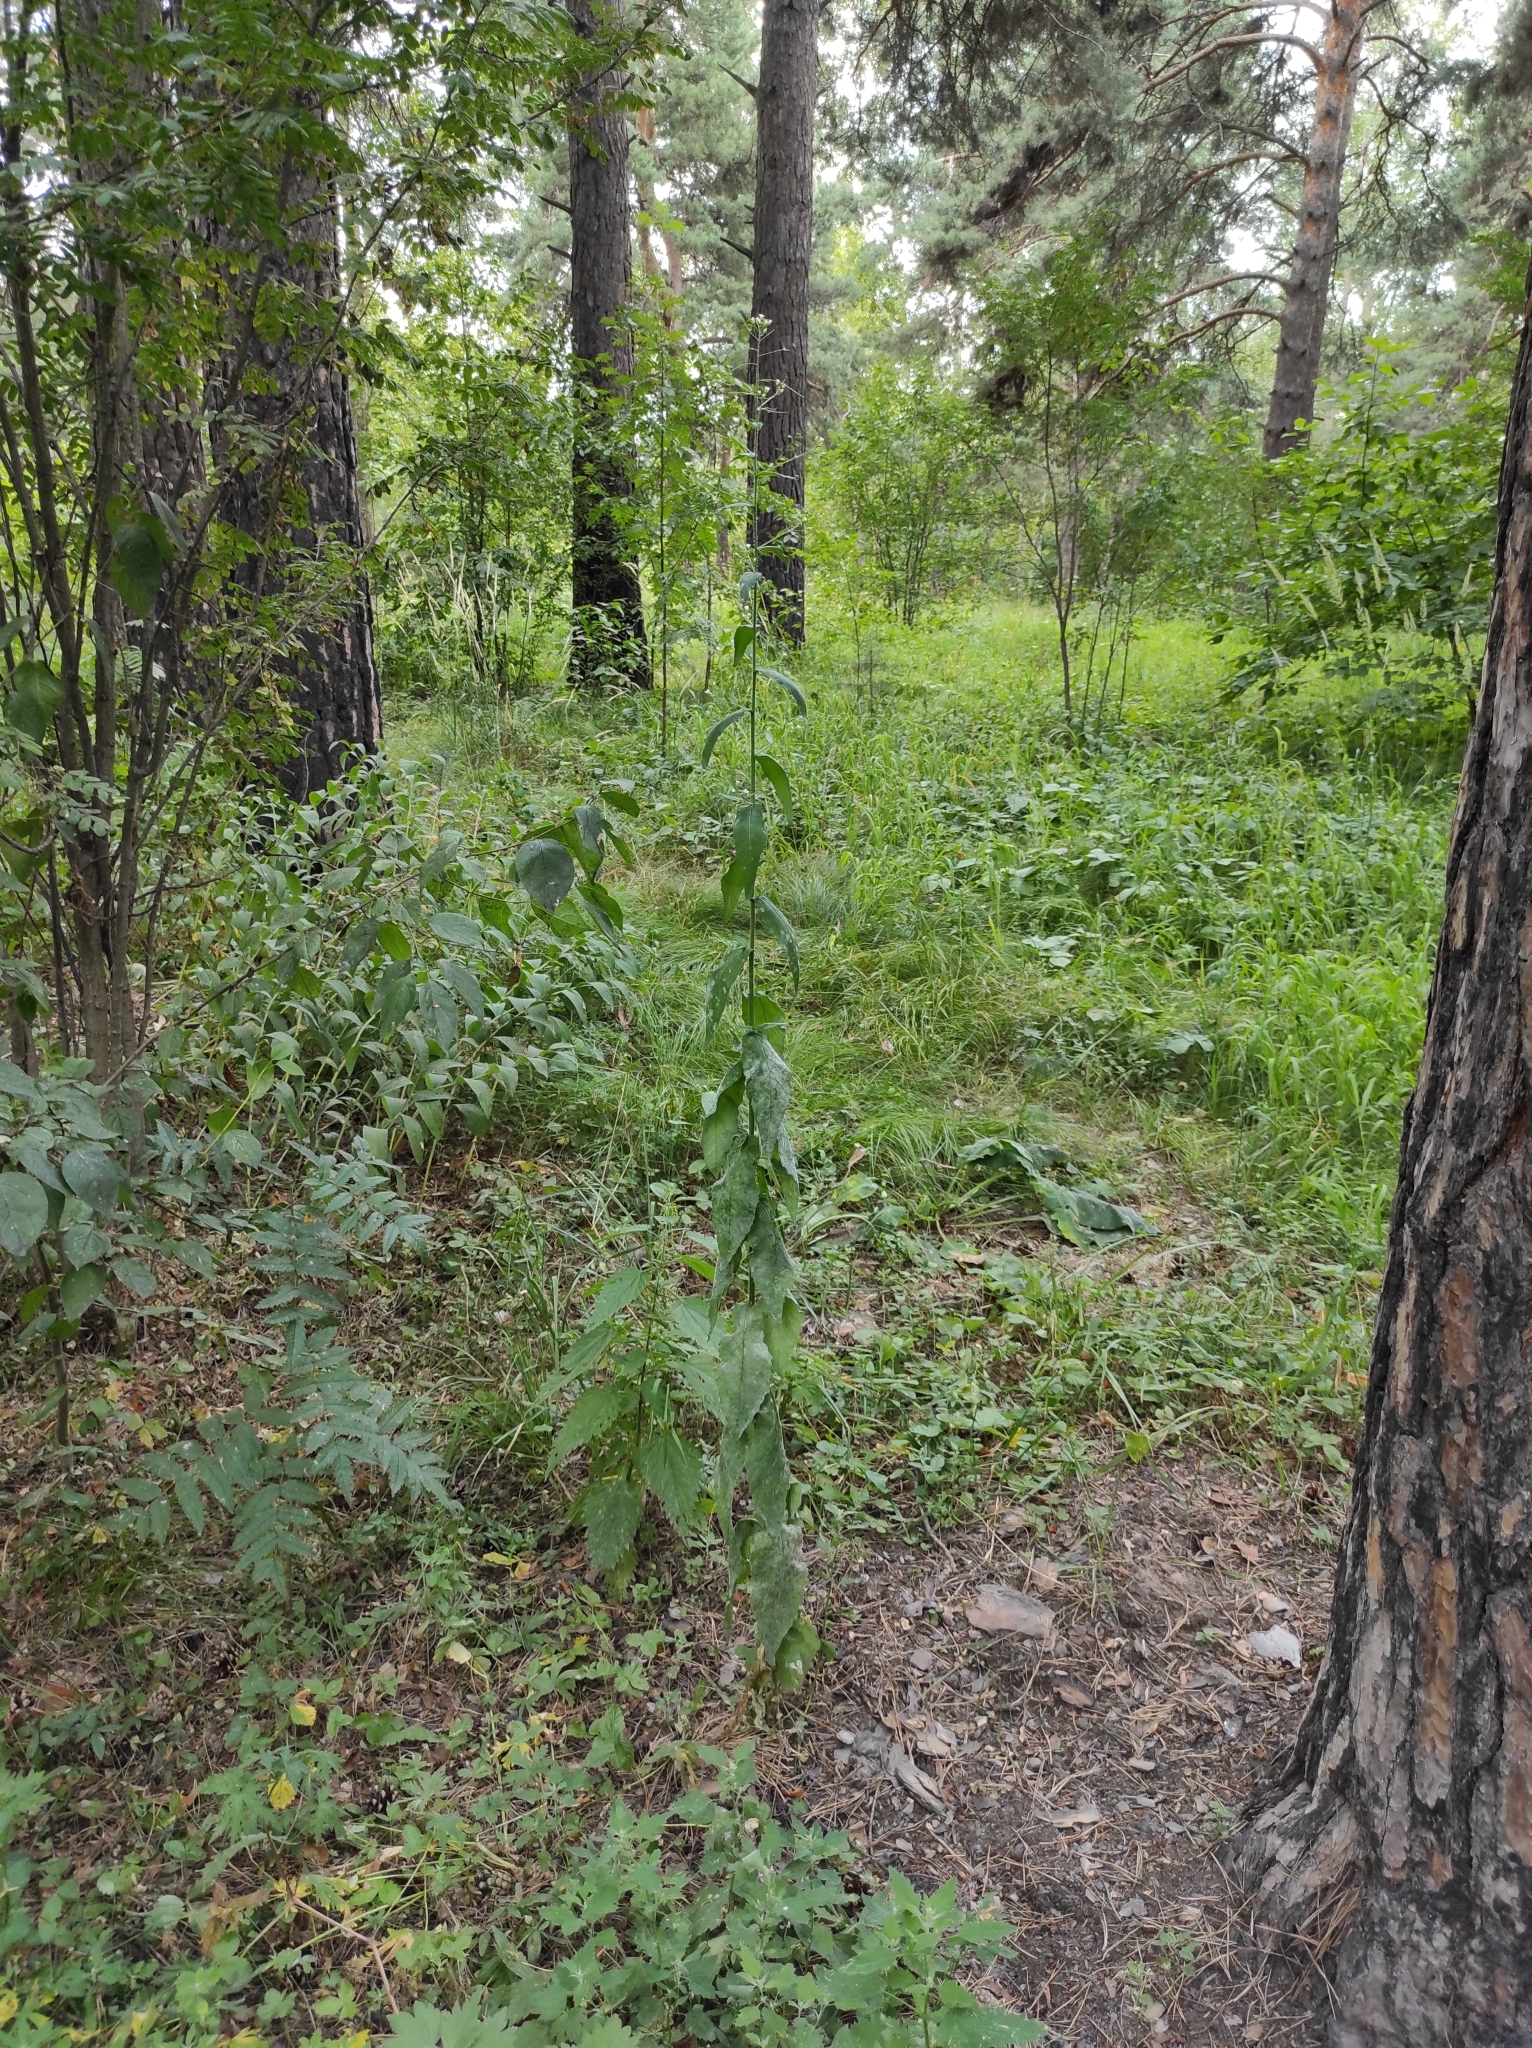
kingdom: Plantae
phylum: Tracheophyta
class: Magnoliopsida
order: Brassicales
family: Brassicaceae
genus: Catolobus
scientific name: Catolobus pendulus
